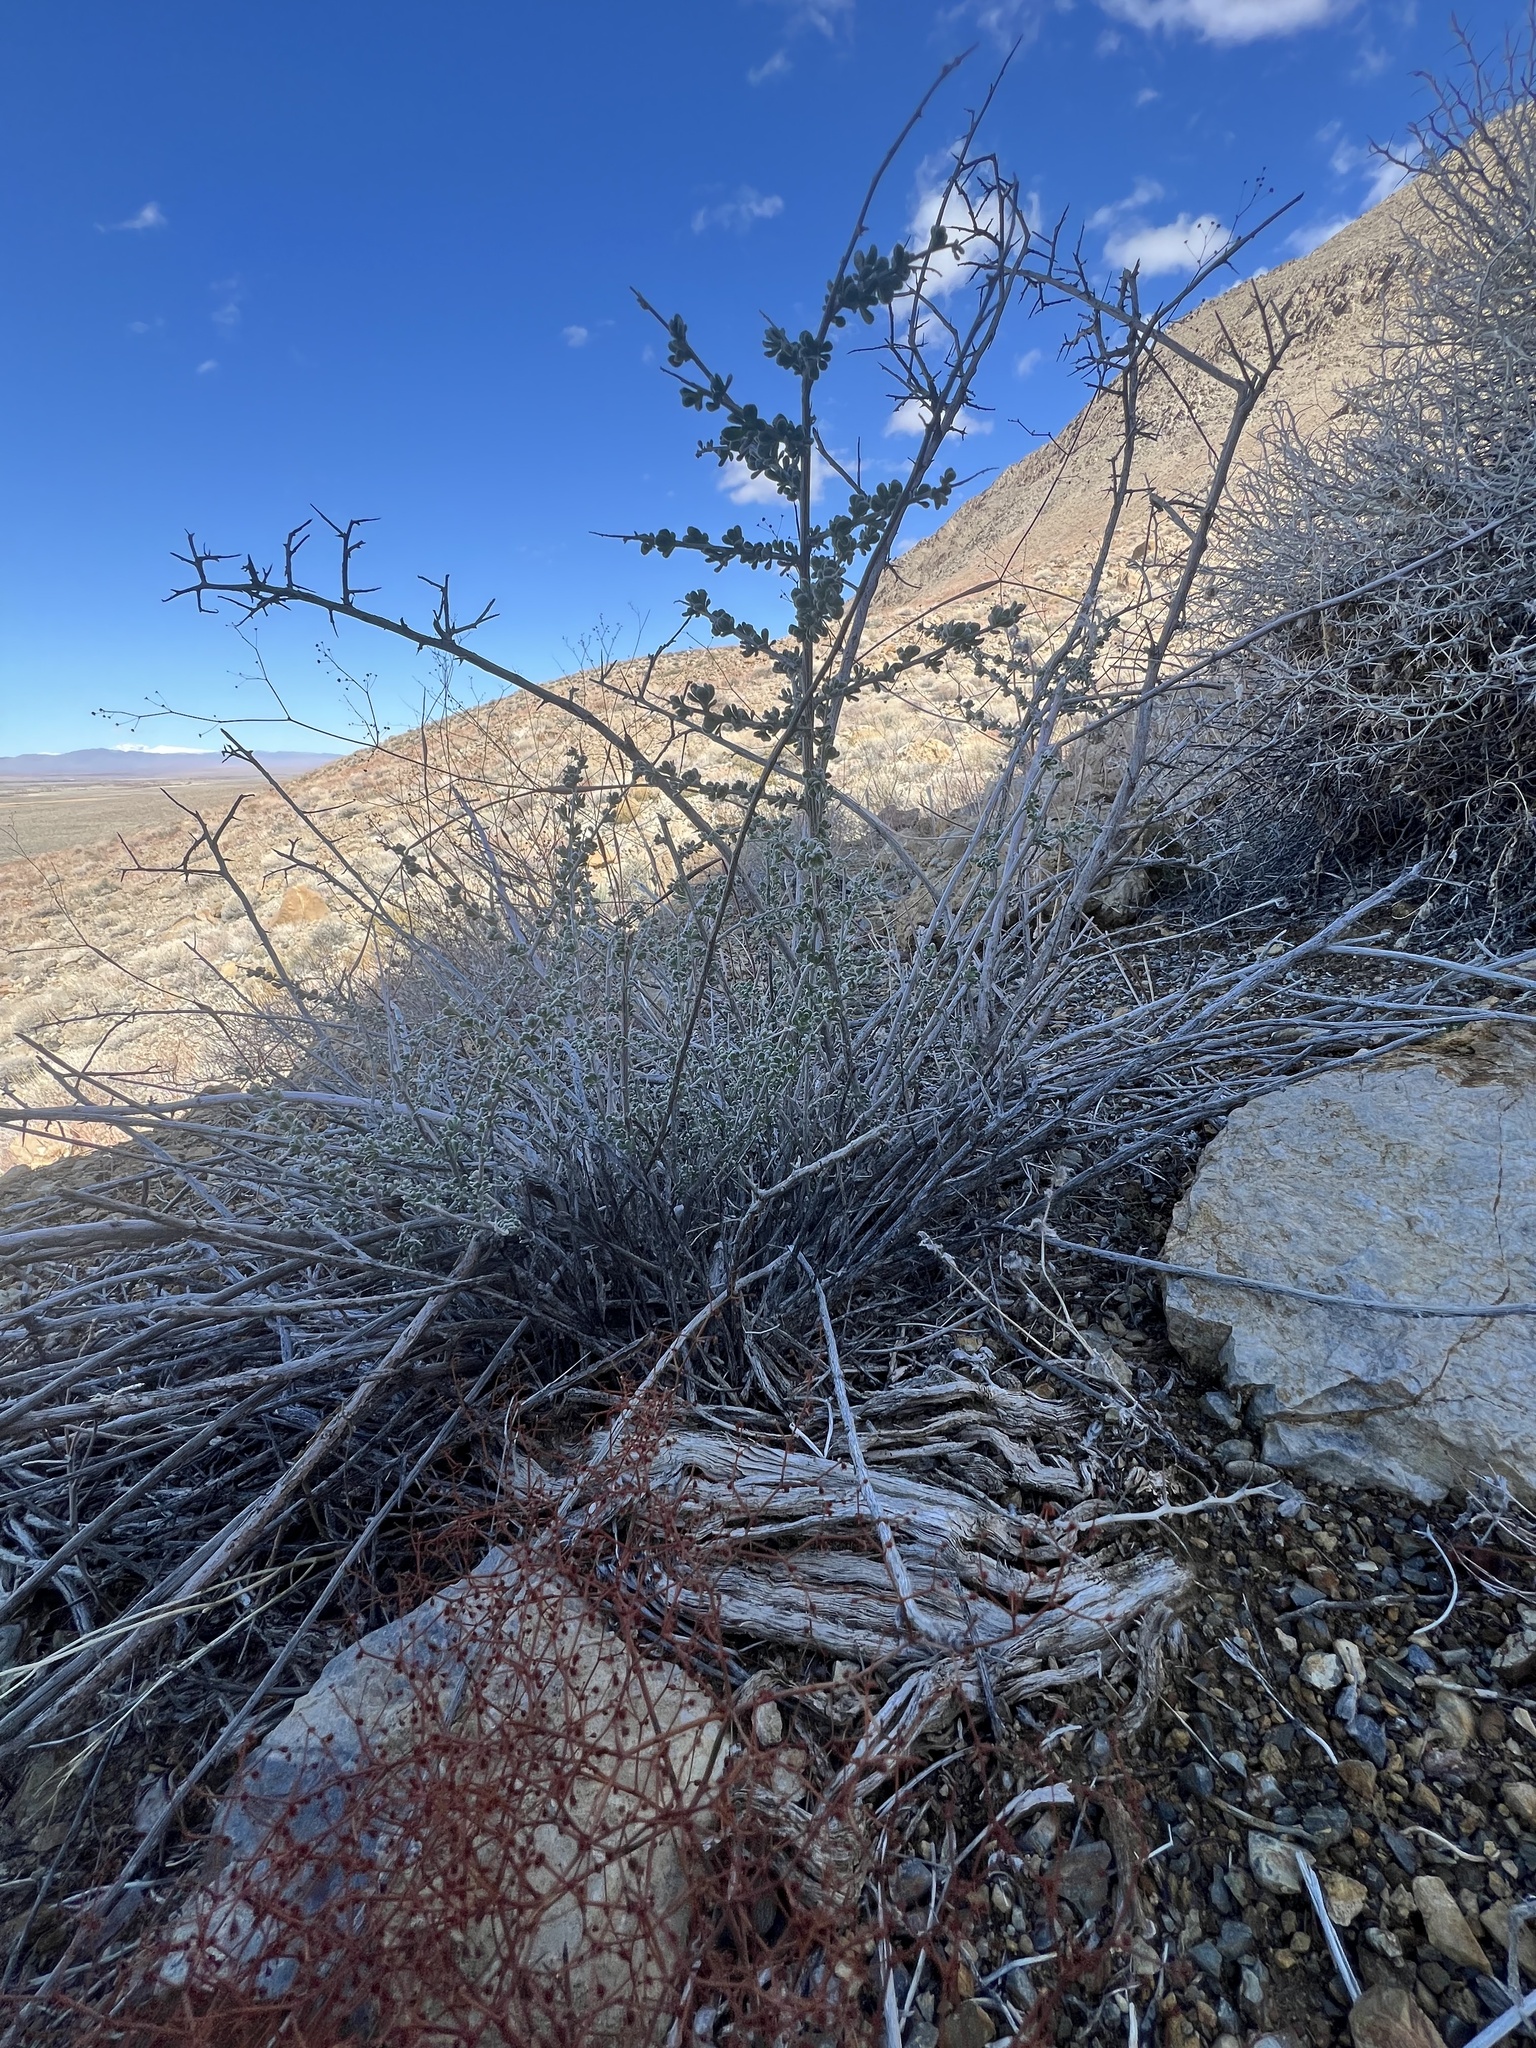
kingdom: Plantae
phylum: Tracheophyta
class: Magnoliopsida
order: Caryophyllales
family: Amaranthaceae
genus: Grayia
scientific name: Grayia spinosa
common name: Spiny hopsage
